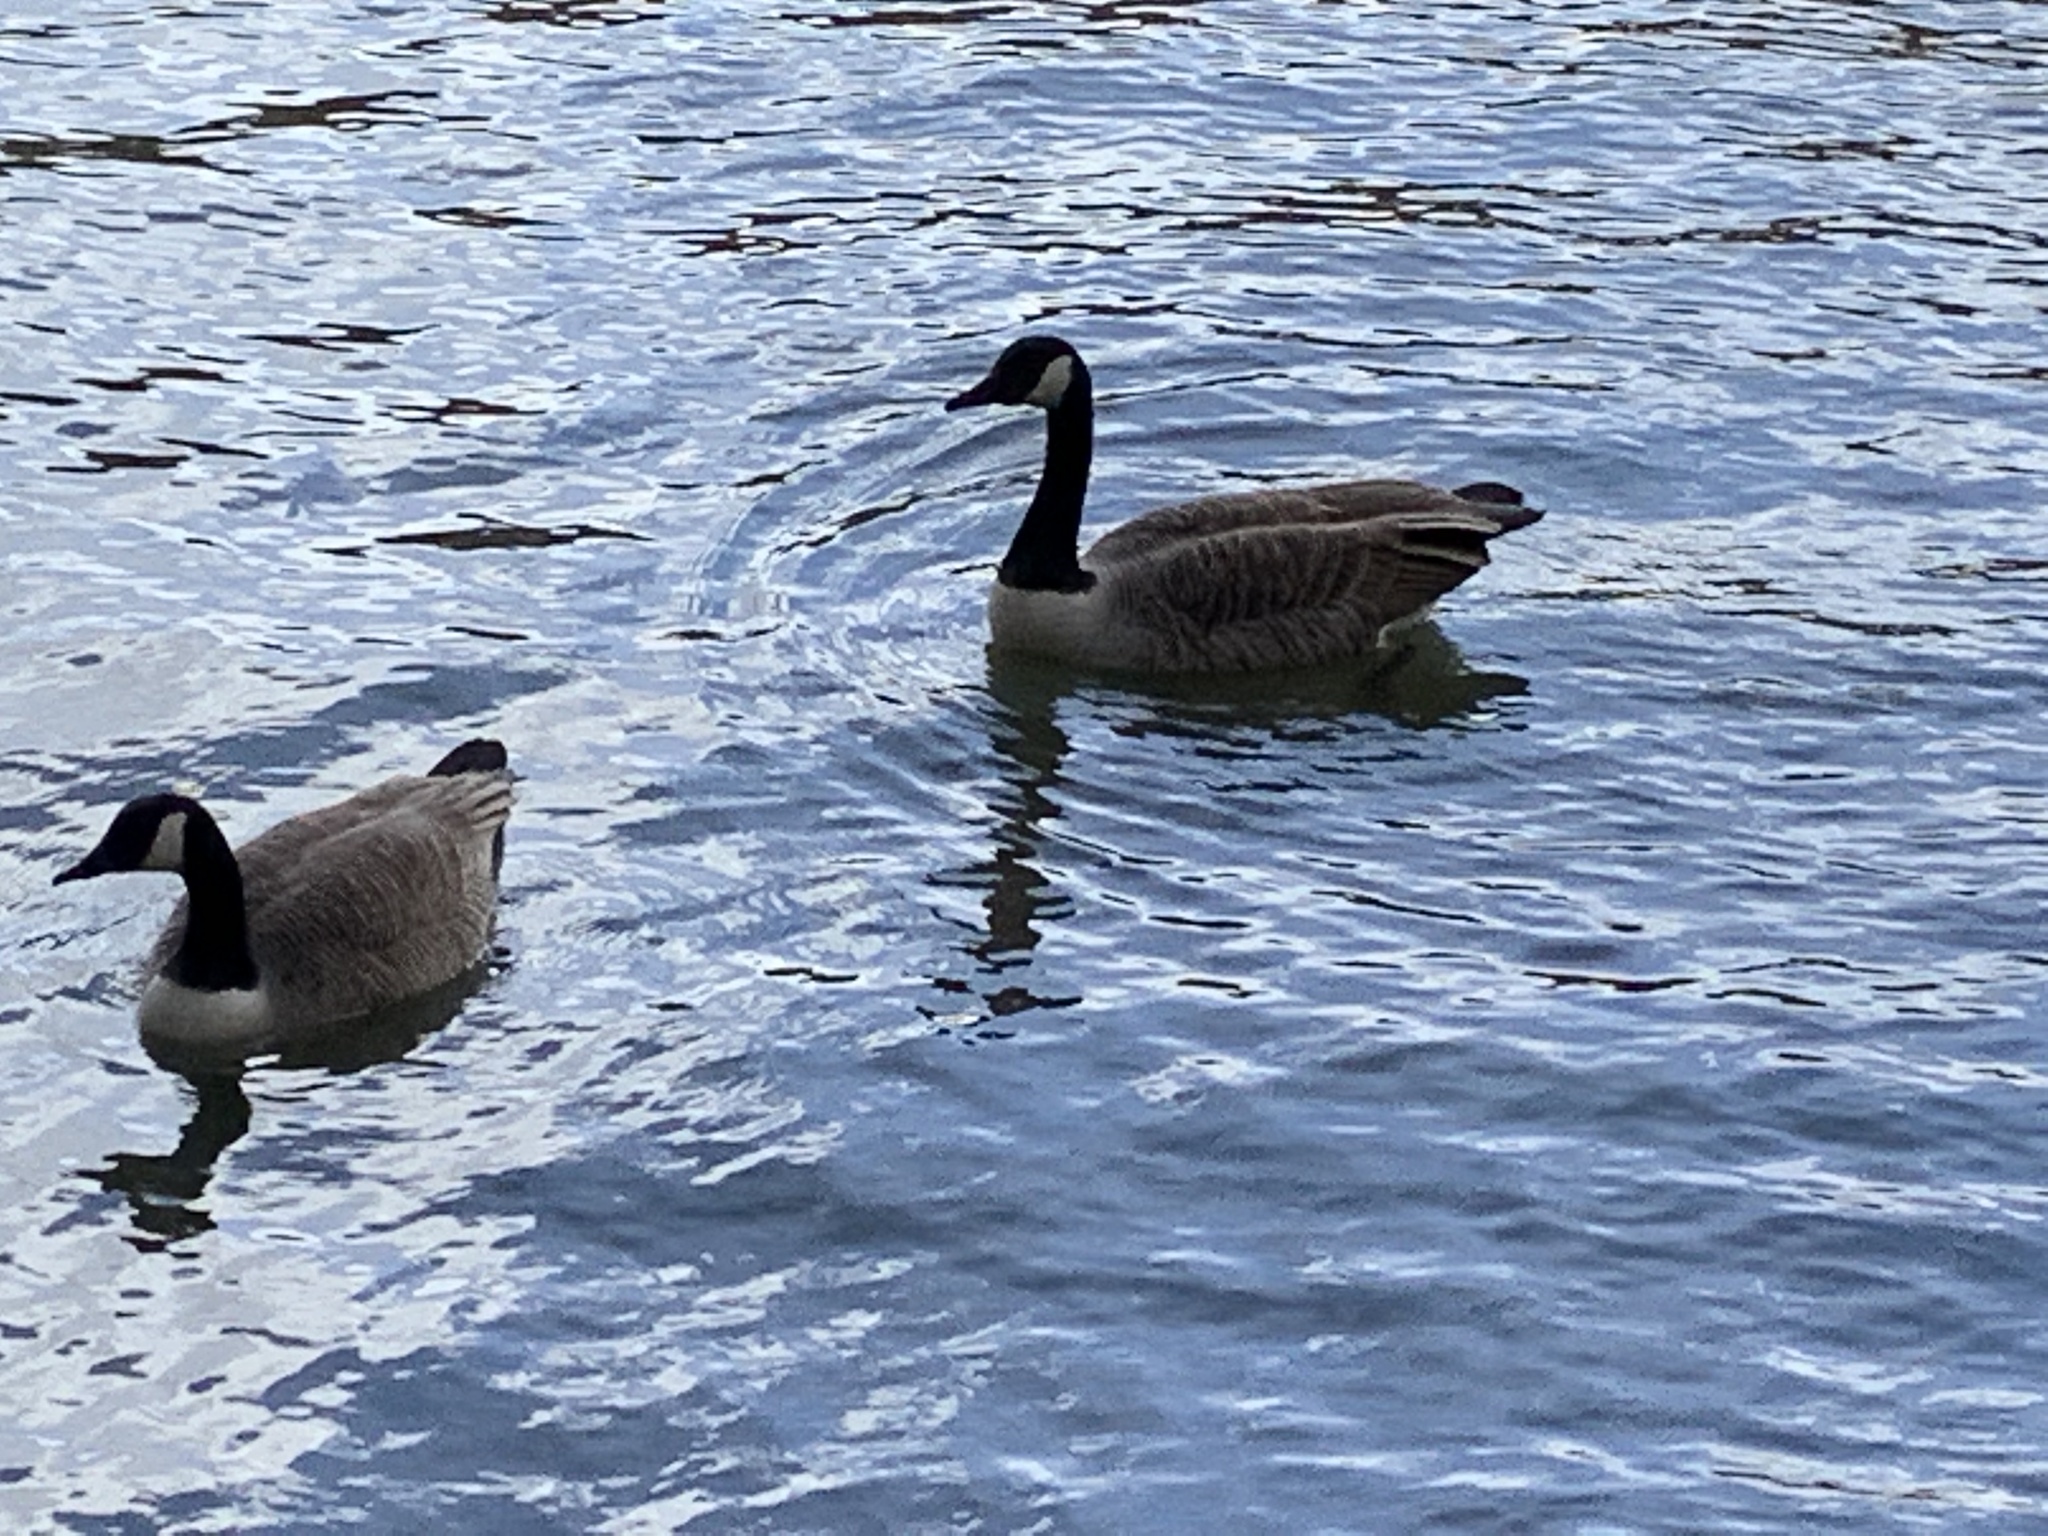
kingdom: Animalia
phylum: Chordata
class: Aves
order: Anseriformes
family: Anatidae
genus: Branta
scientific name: Branta canadensis
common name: Canada goose
